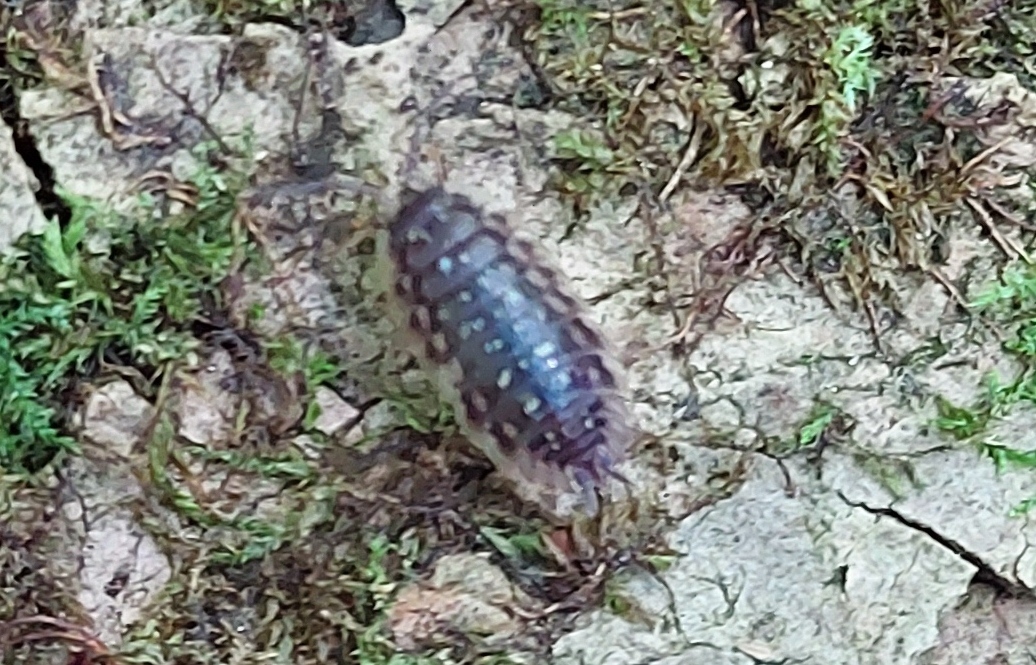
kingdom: Animalia
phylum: Arthropoda
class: Malacostraca
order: Isopoda
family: Oniscidae
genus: Oniscus
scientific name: Oniscus asellus
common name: Common shiny woodlouse
